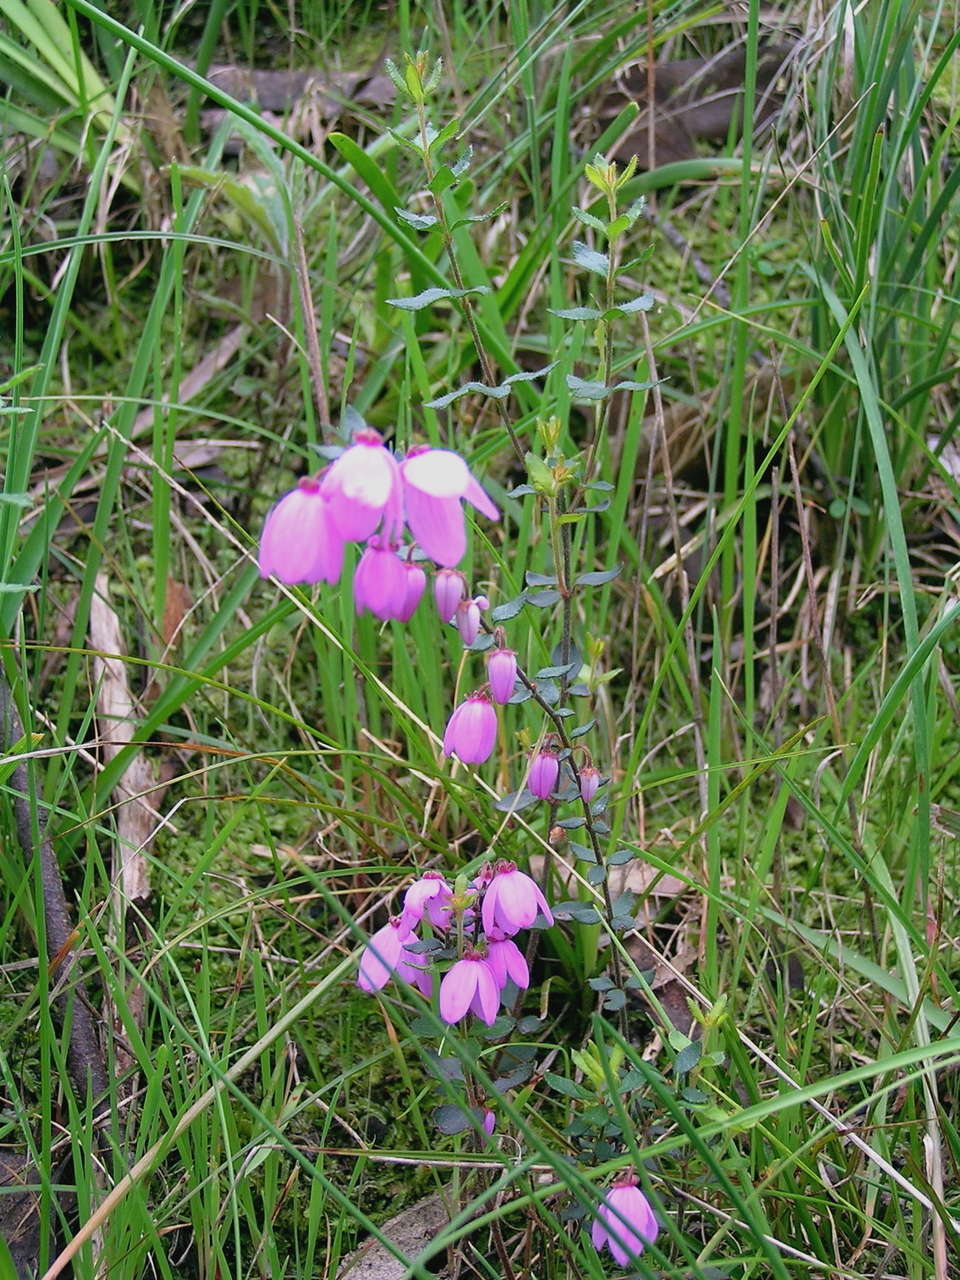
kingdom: Plantae
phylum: Tracheophyta
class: Magnoliopsida
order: Oxalidales
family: Elaeocarpaceae
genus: Tetratheca
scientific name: Tetratheca ciliata
